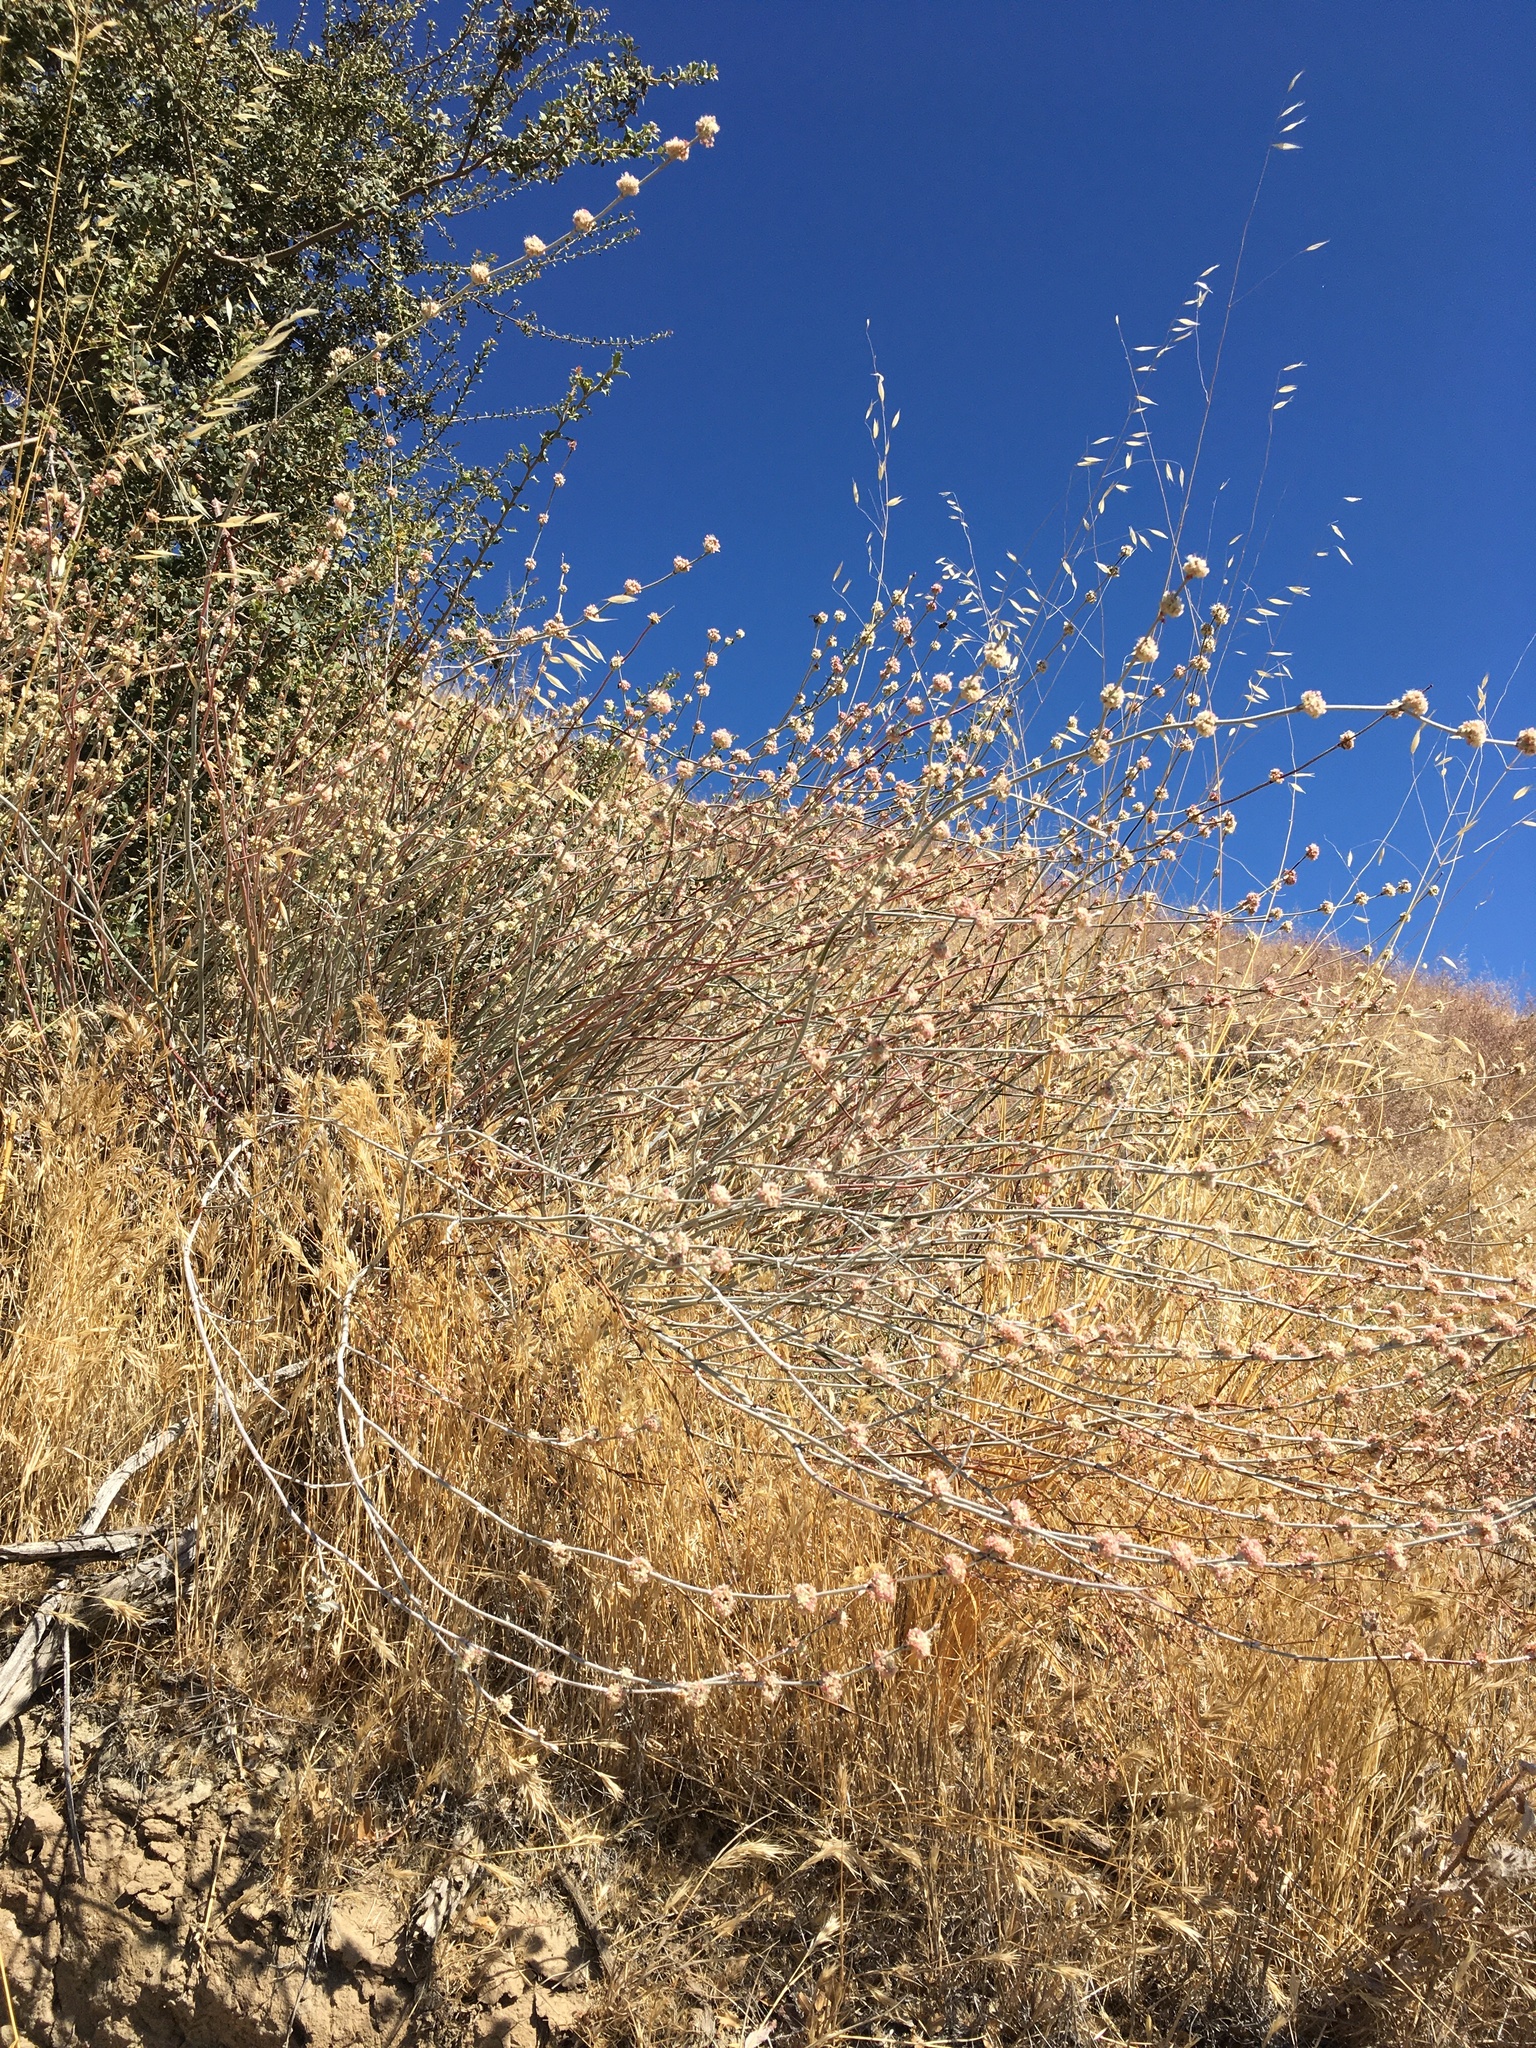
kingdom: Plantae
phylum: Tracheophyta
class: Magnoliopsida
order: Caryophyllales
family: Polygonaceae
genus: Eriogonum
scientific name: Eriogonum elongatum
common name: Long-stem wild buckwheat
